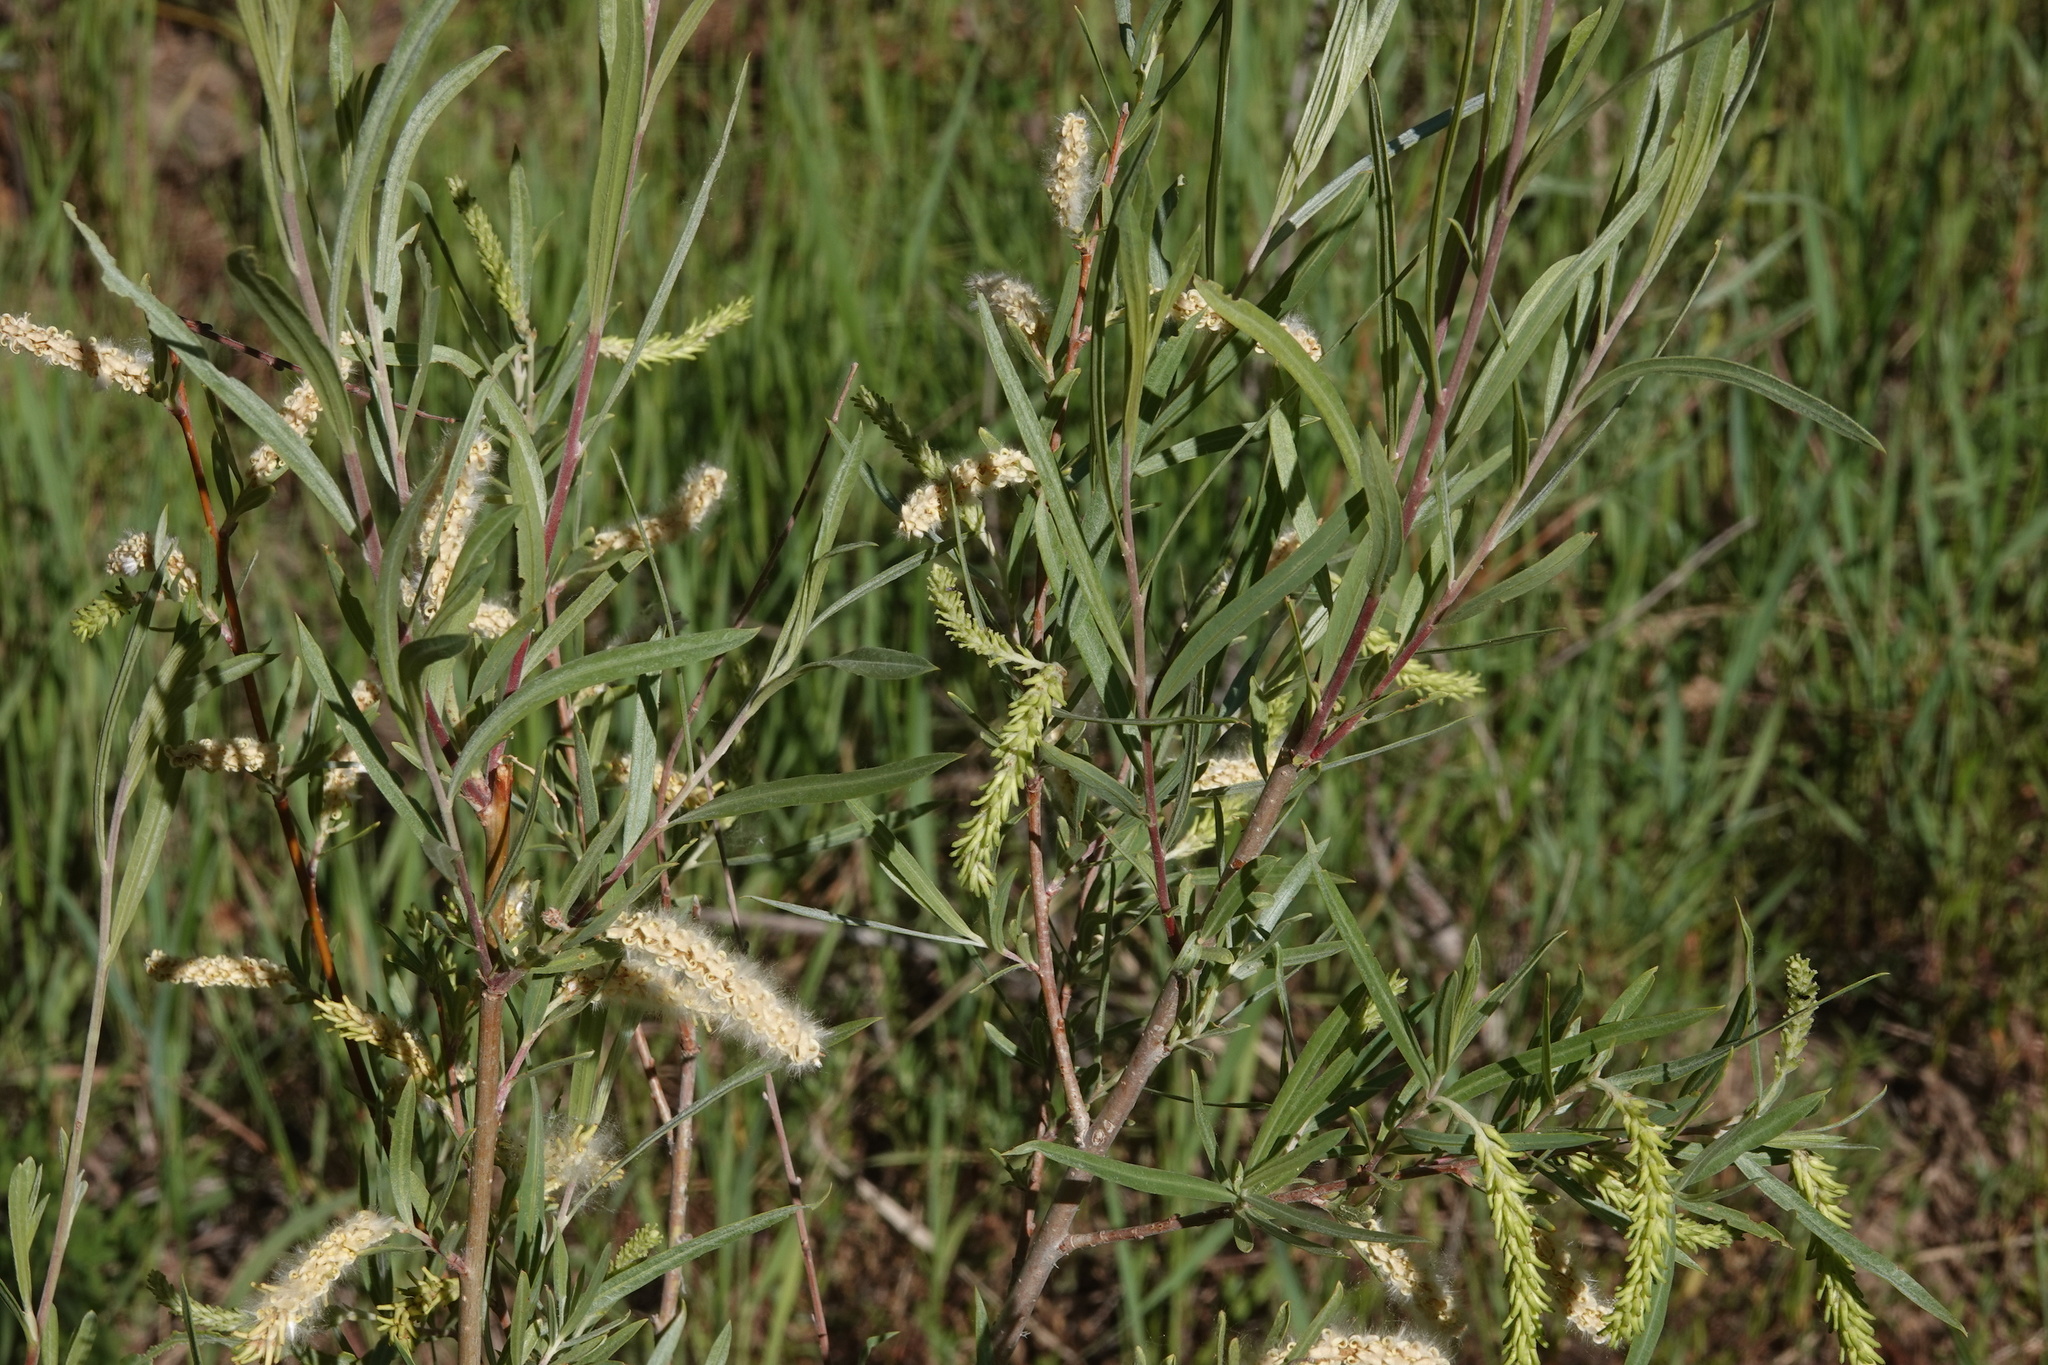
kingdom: Plantae
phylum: Tracheophyta
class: Magnoliopsida
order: Malpighiales
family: Salicaceae
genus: Salix
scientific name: Salix exigua
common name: Coyote willow
